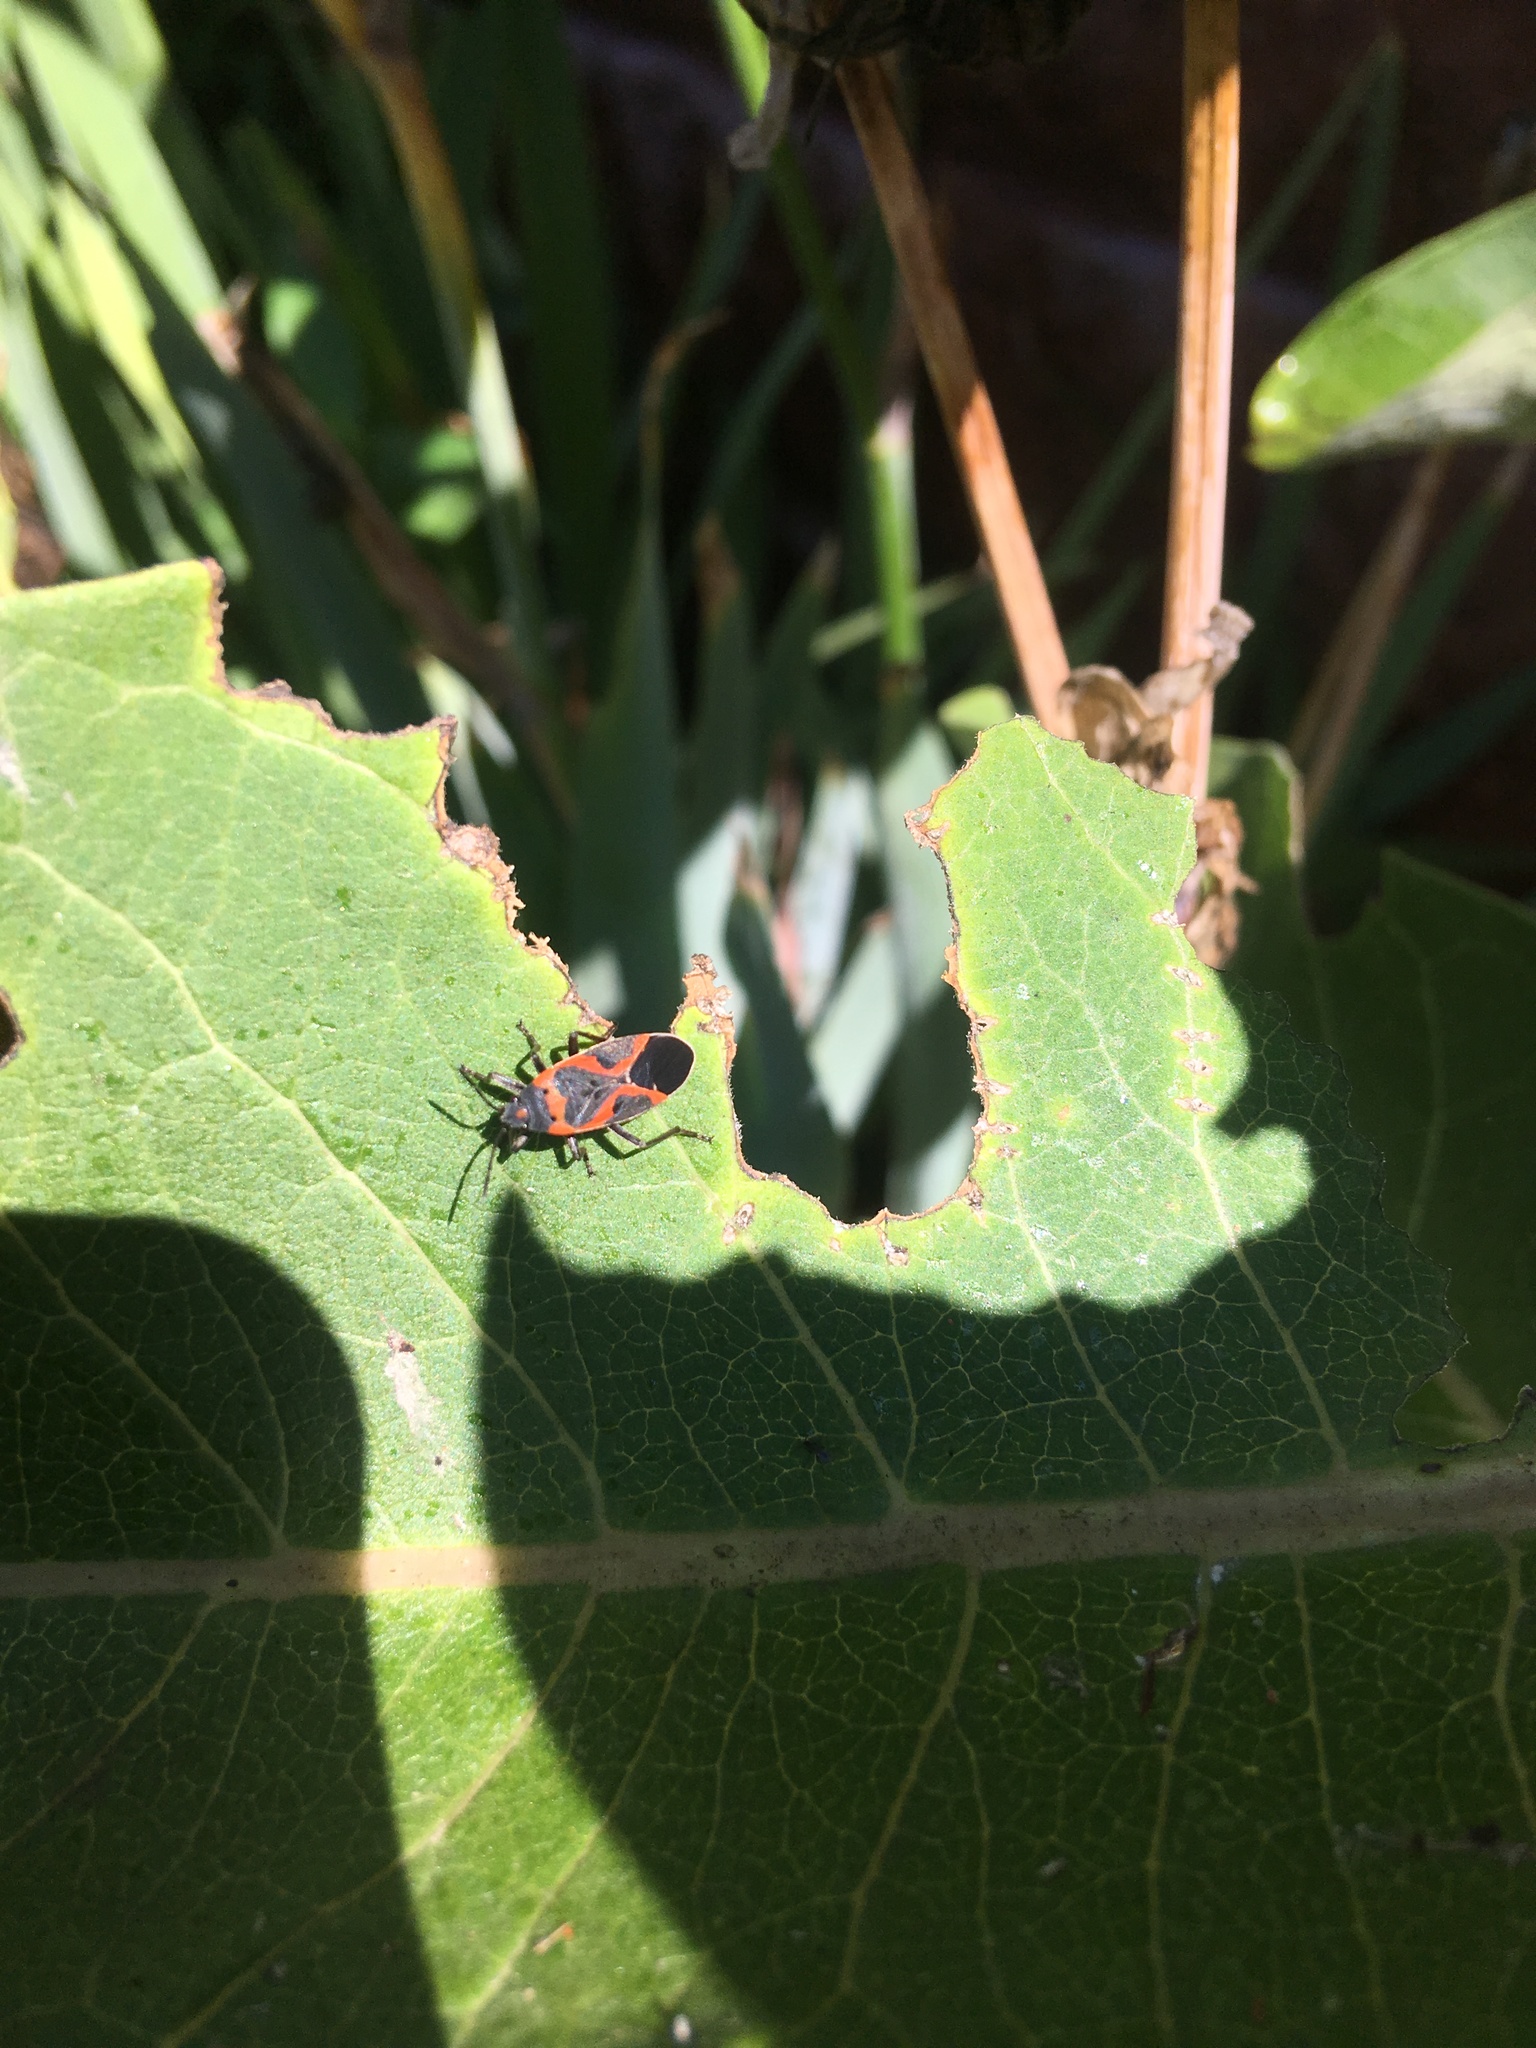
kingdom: Animalia
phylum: Arthropoda
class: Insecta
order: Hemiptera
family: Lygaeidae
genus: Lygaeus
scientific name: Lygaeus kalmii
